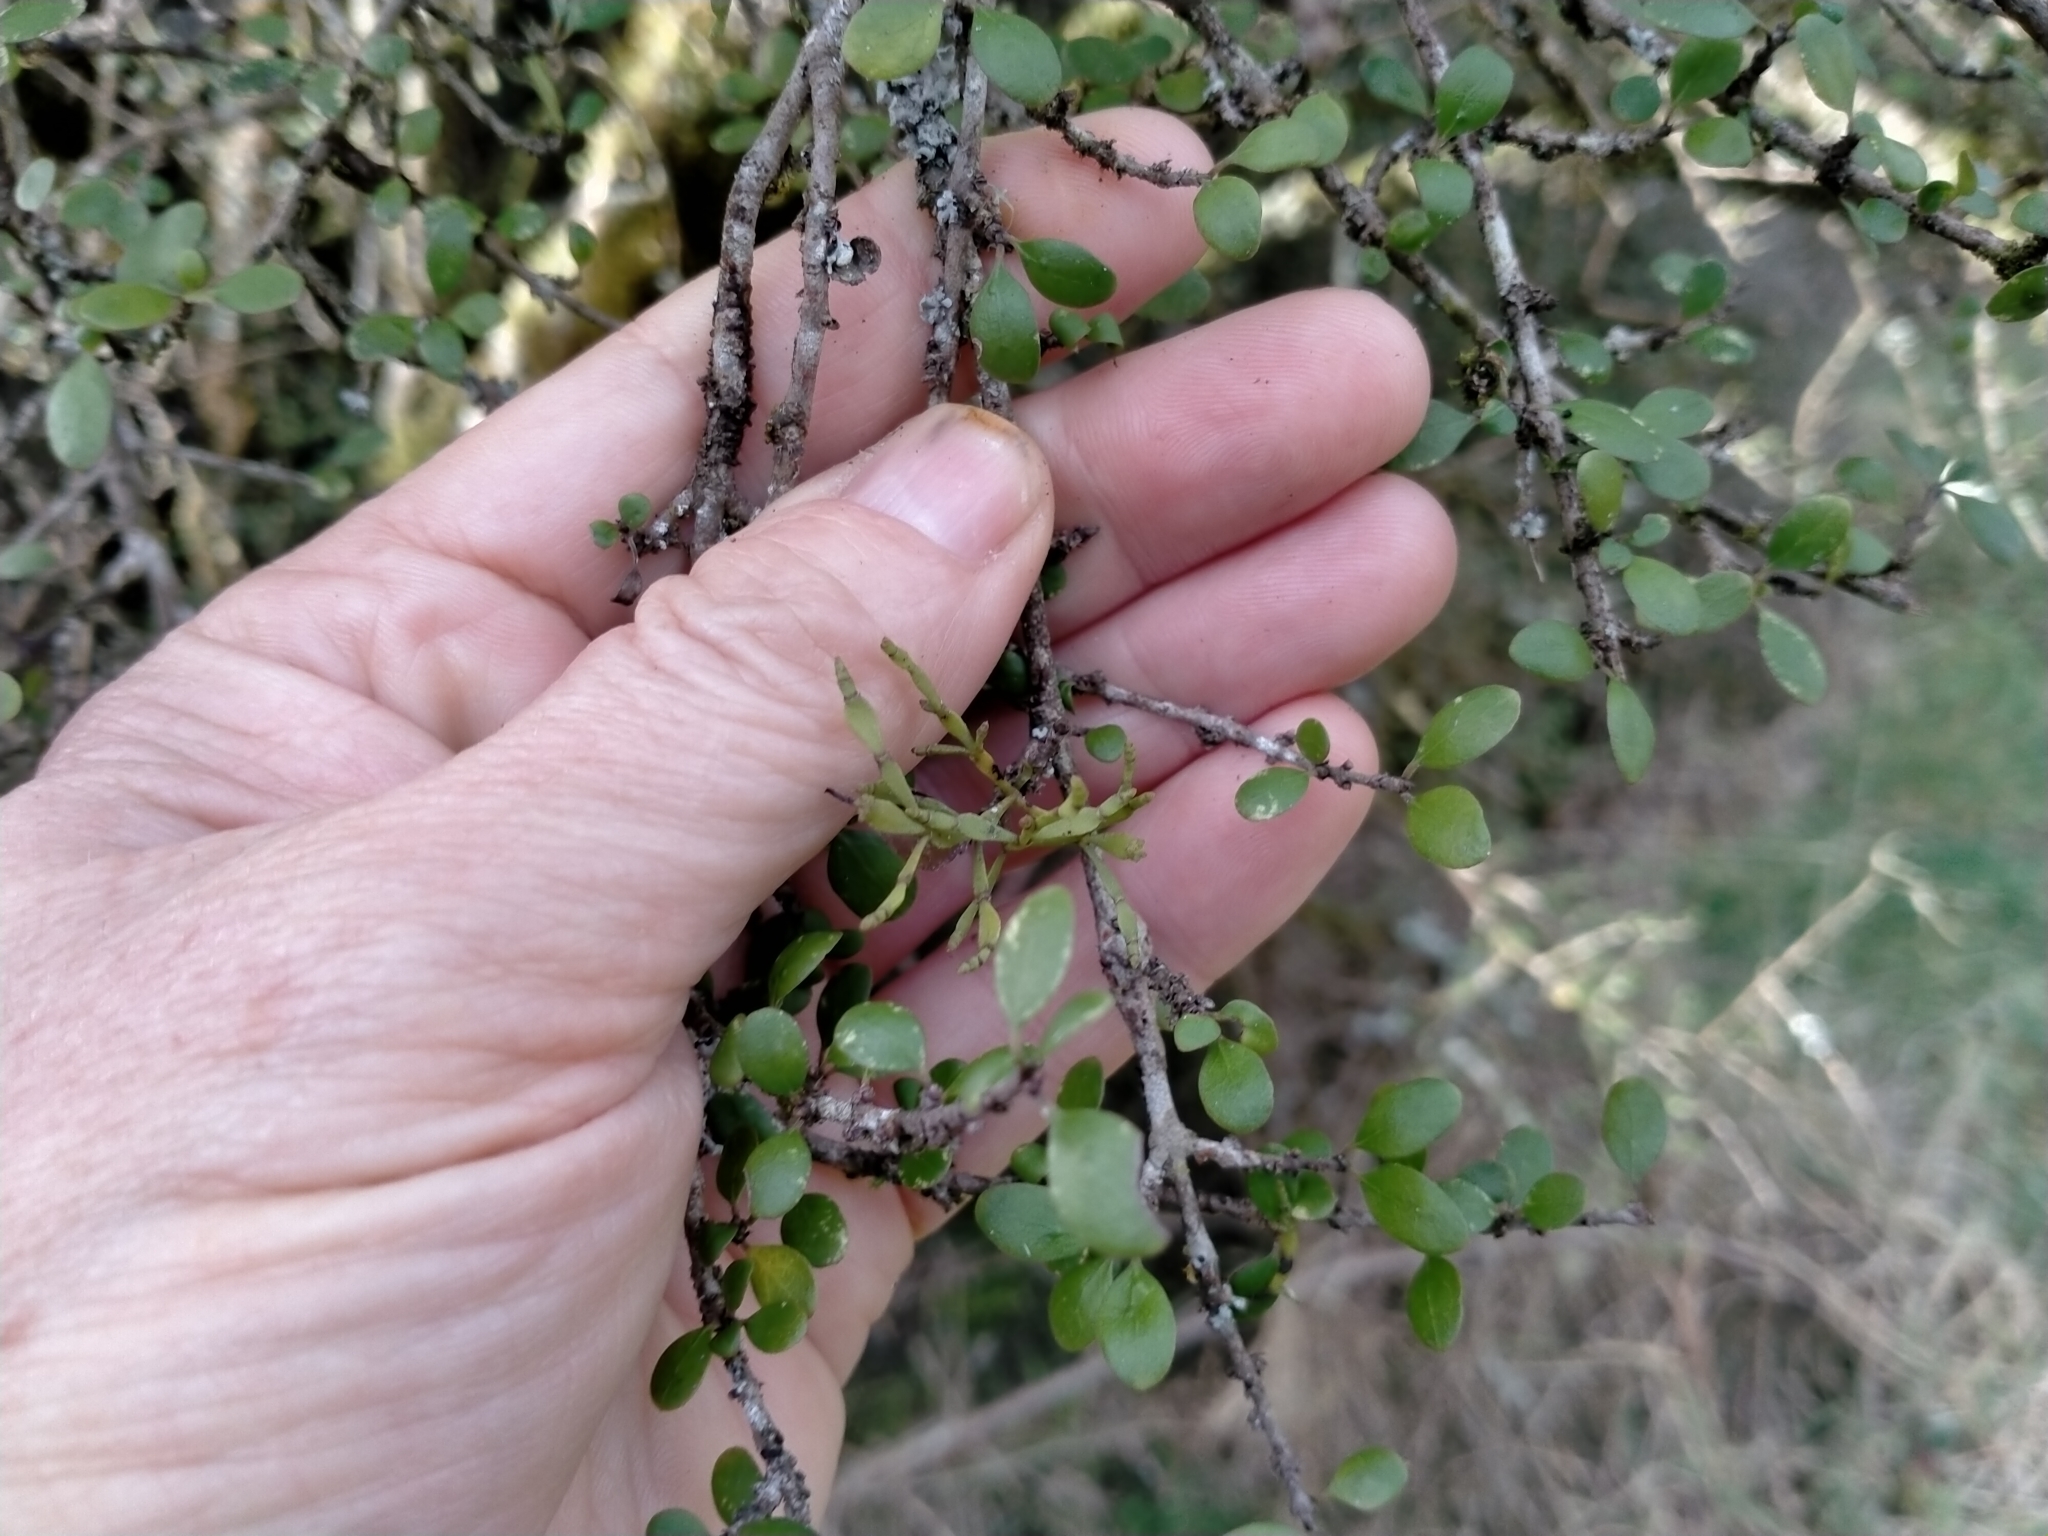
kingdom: Plantae
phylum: Tracheophyta
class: Magnoliopsida
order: Santalales
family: Viscaceae
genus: Korthalsella
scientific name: Korthalsella clavata
